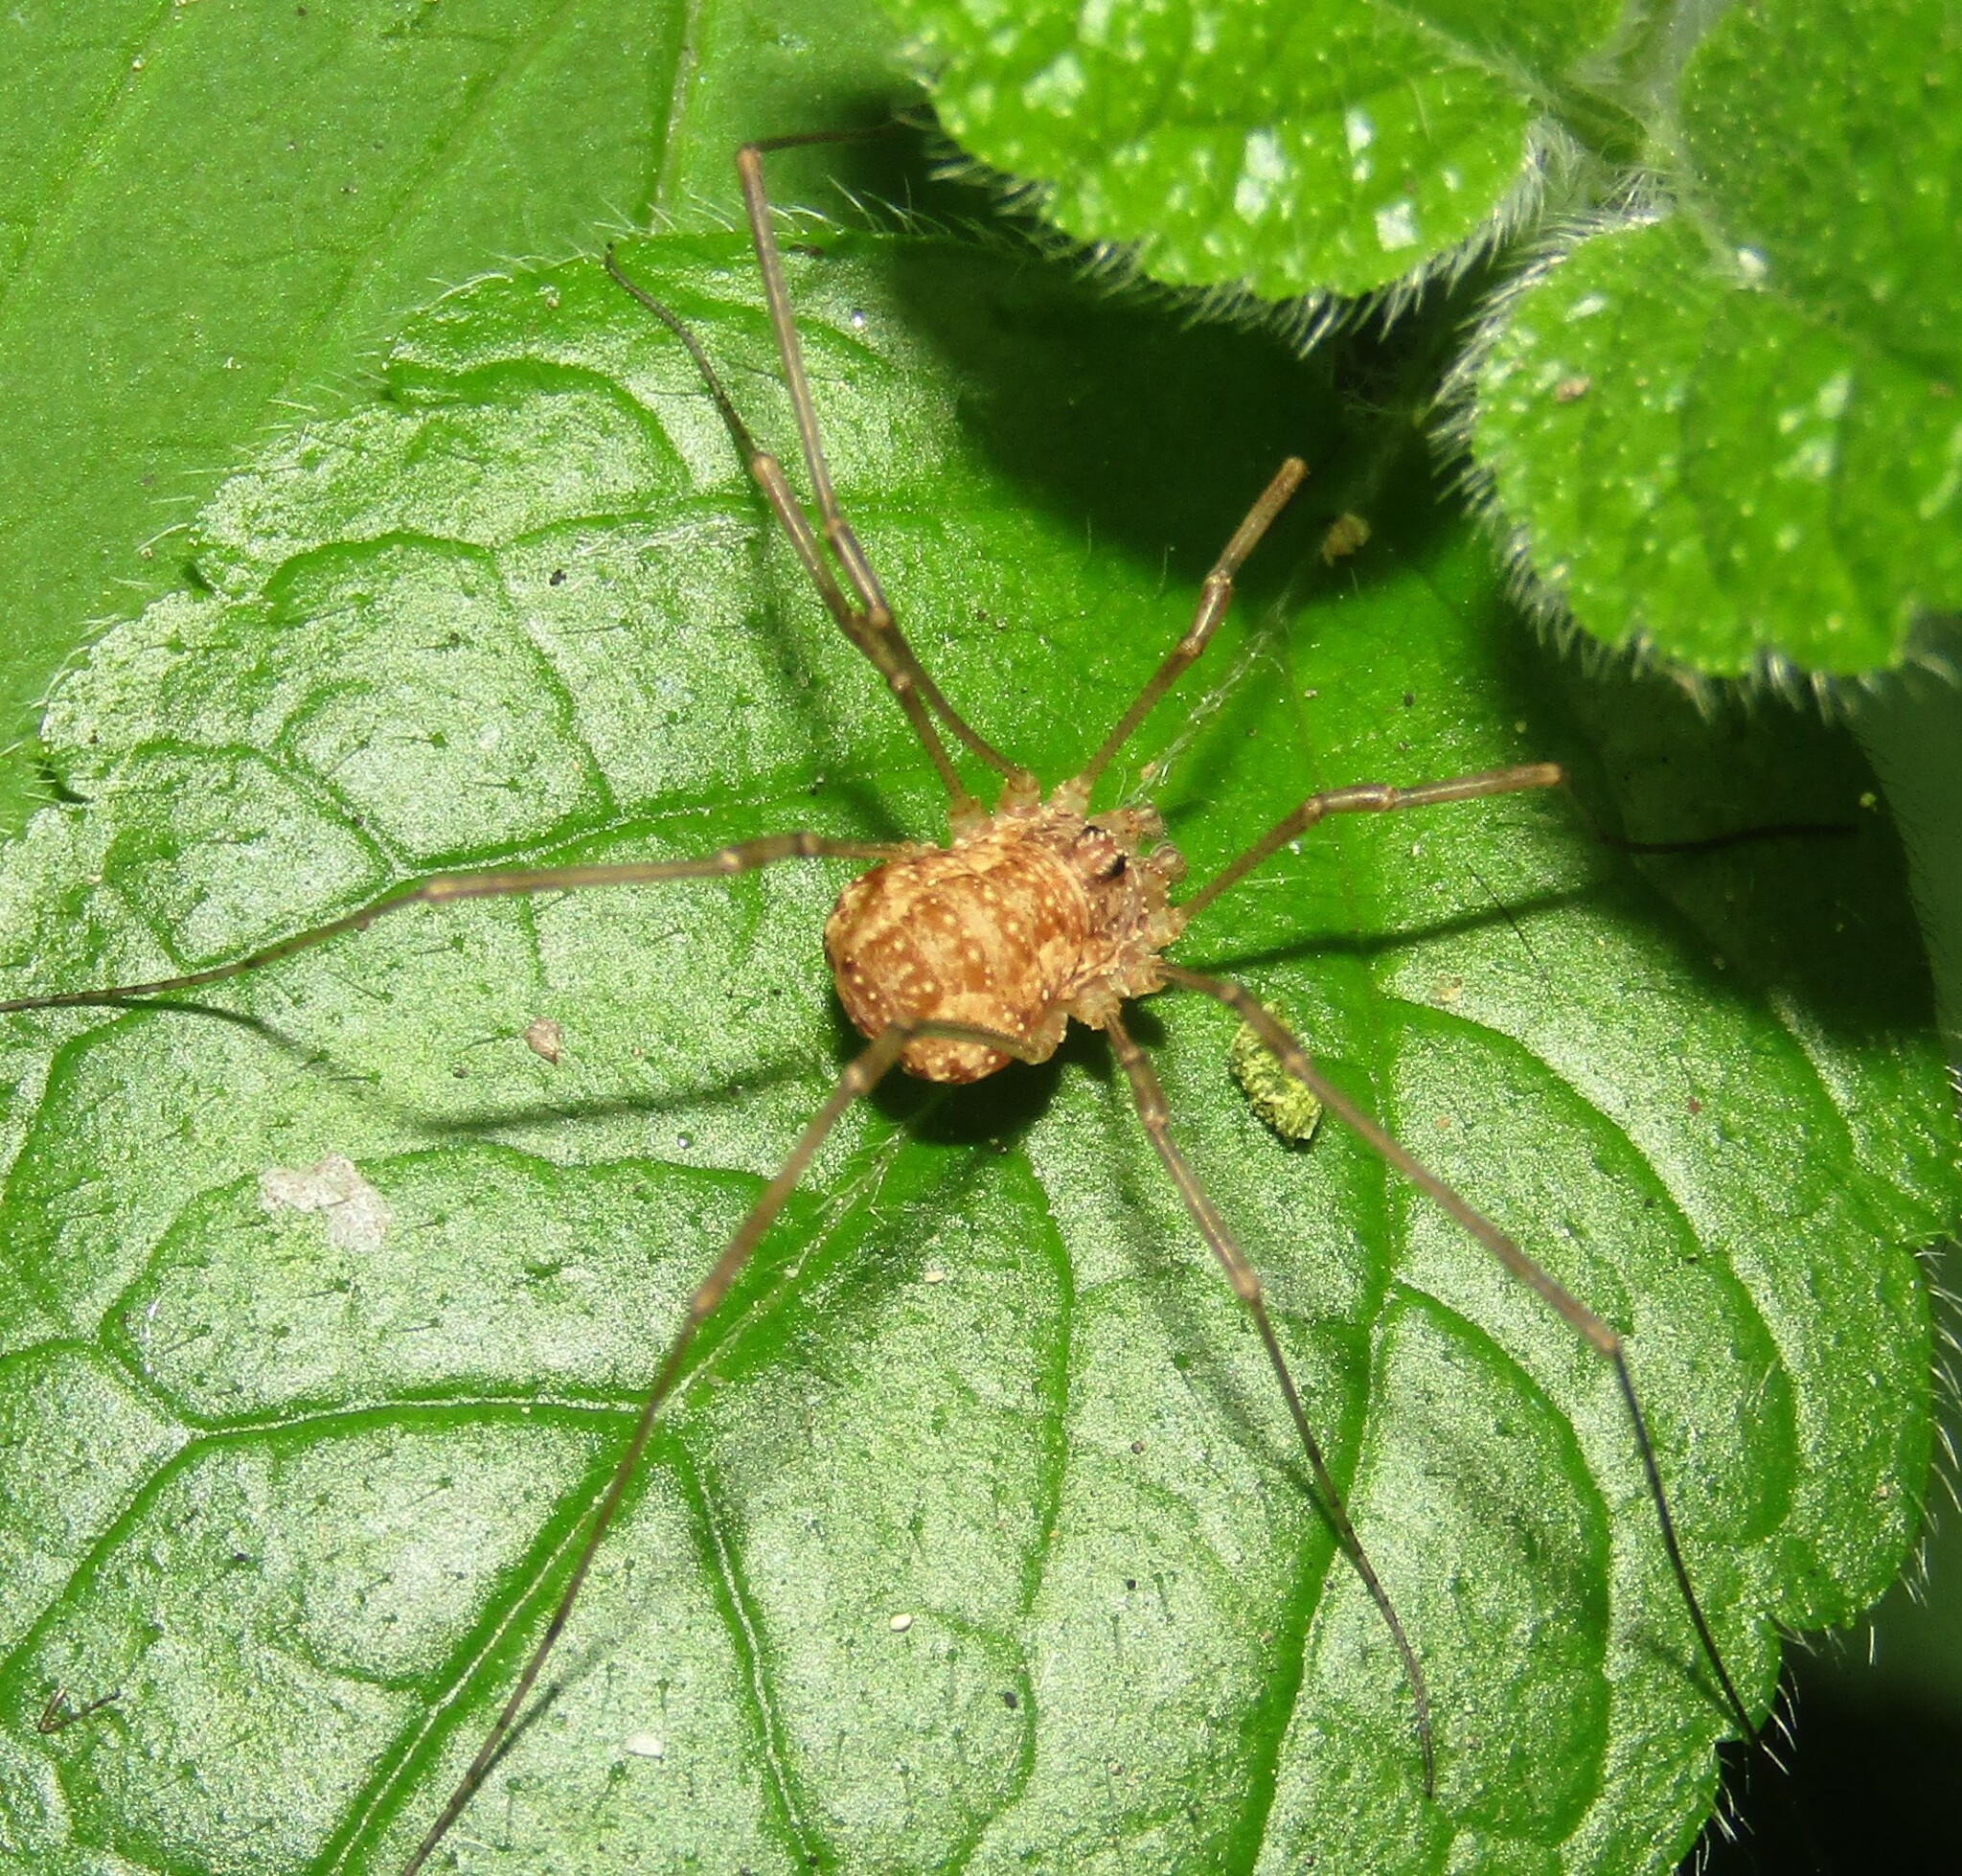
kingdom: Animalia
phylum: Arthropoda
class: Arachnida
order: Opiliones
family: Phalangiidae
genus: Rilaena
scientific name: Rilaena triangularis
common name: Spring harvestman
